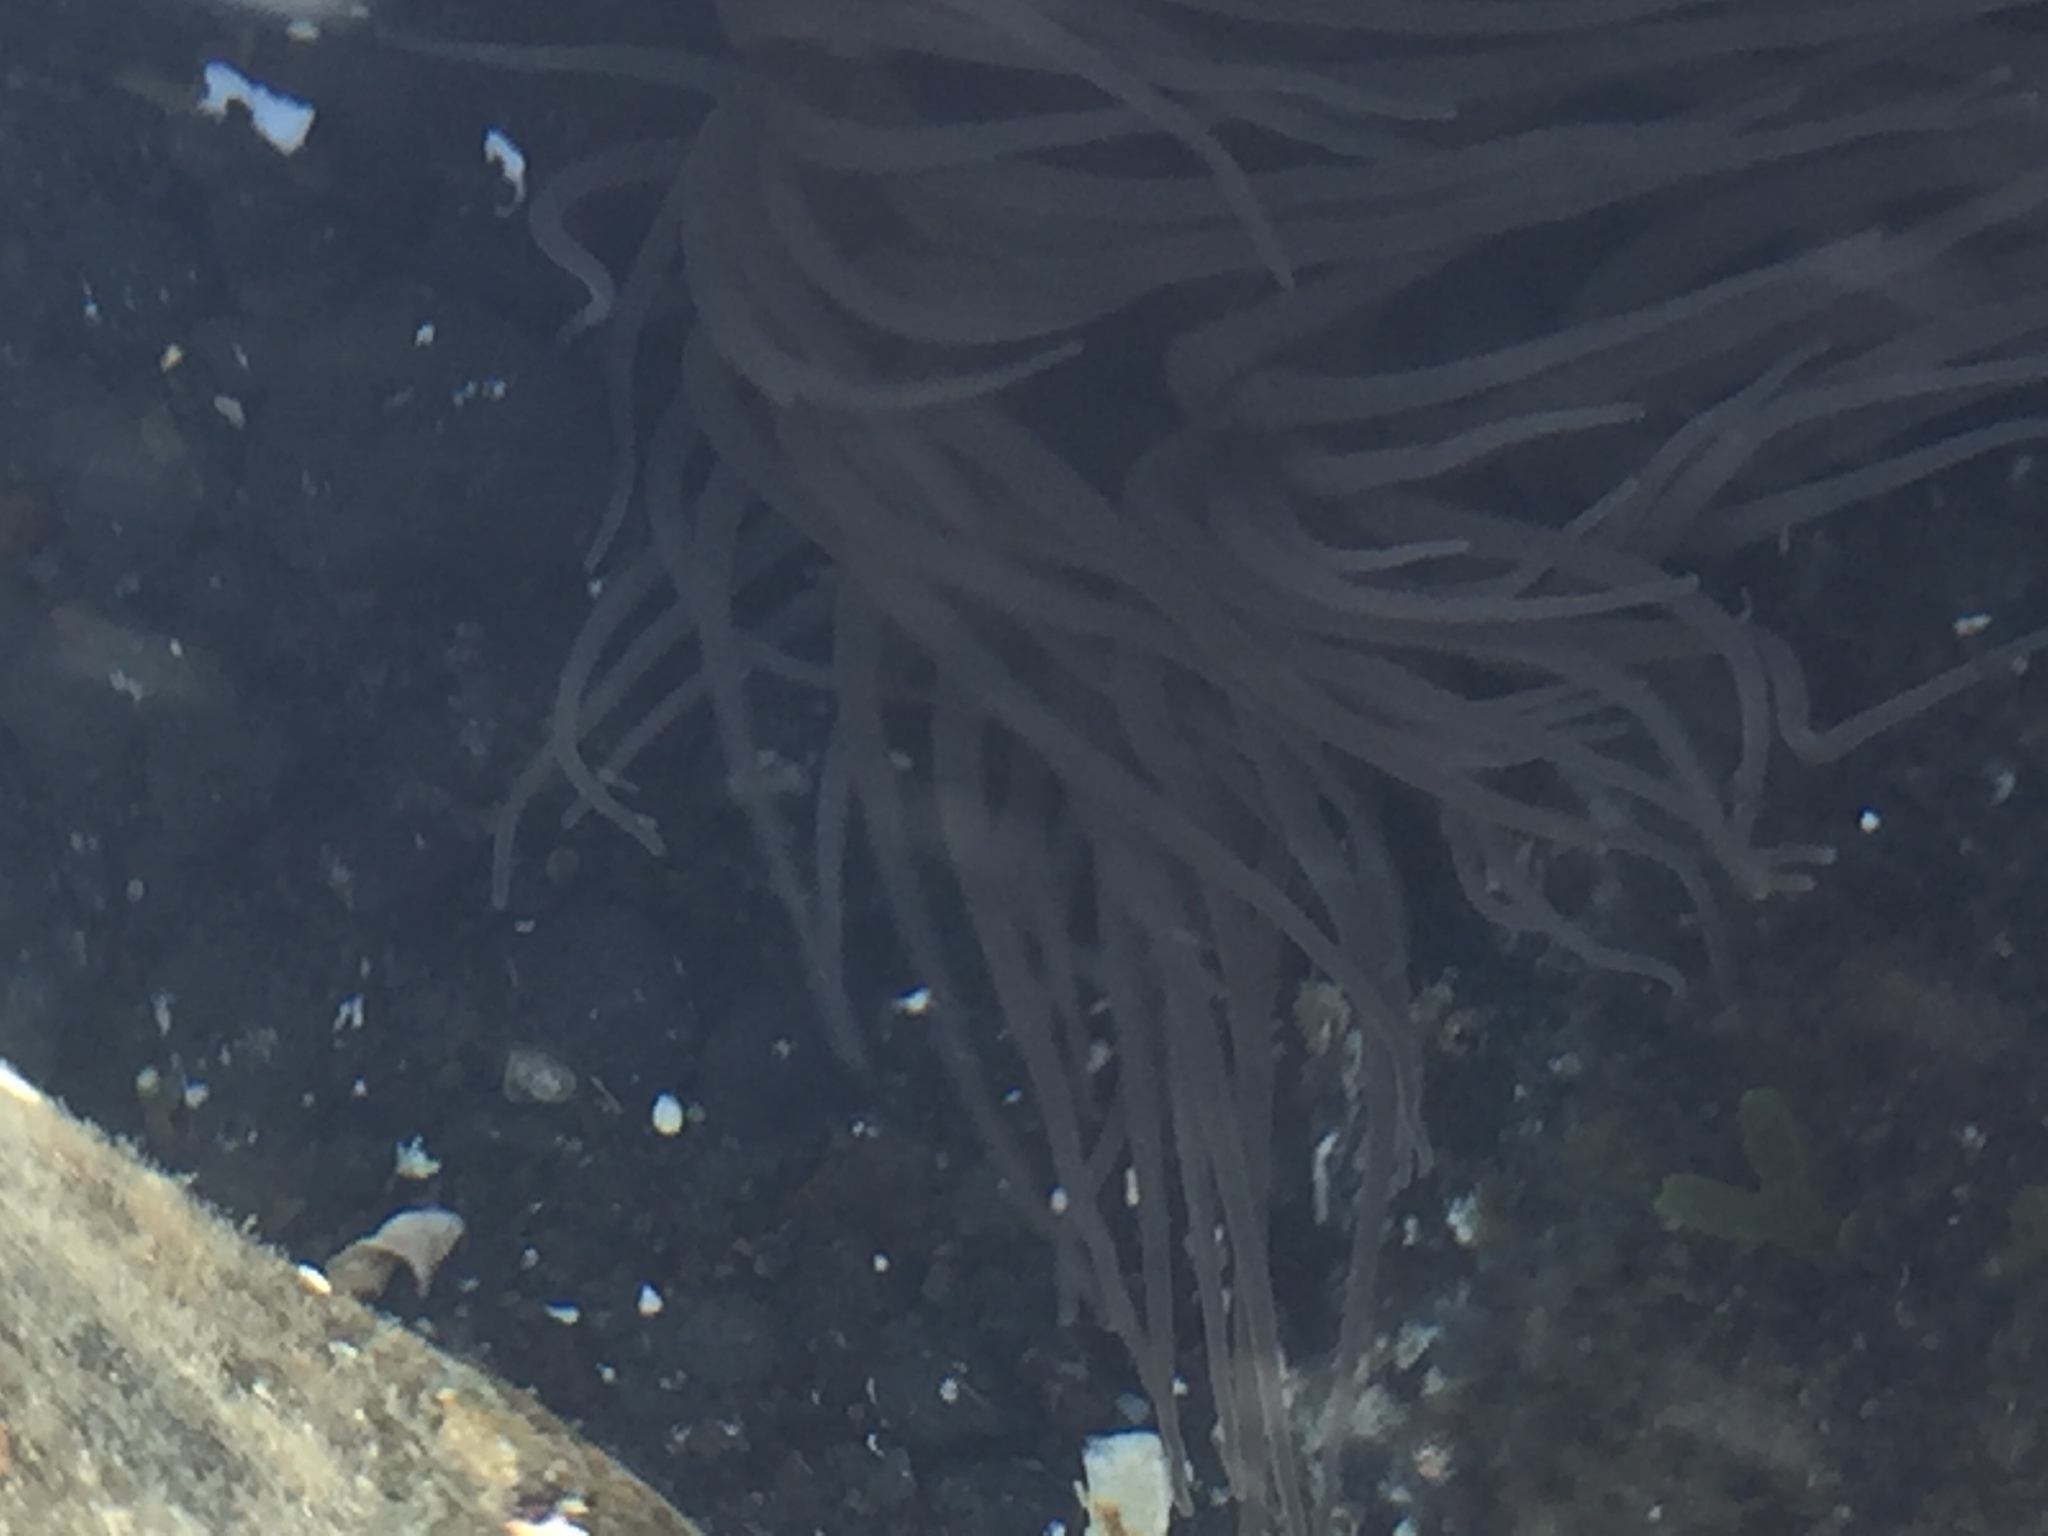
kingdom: Animalia
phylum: Cnidaria
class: Anthozoa
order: Actiniaria
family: Actiniidae
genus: Anemonia
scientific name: Anemonia viridis
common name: Snakelocks anemone
